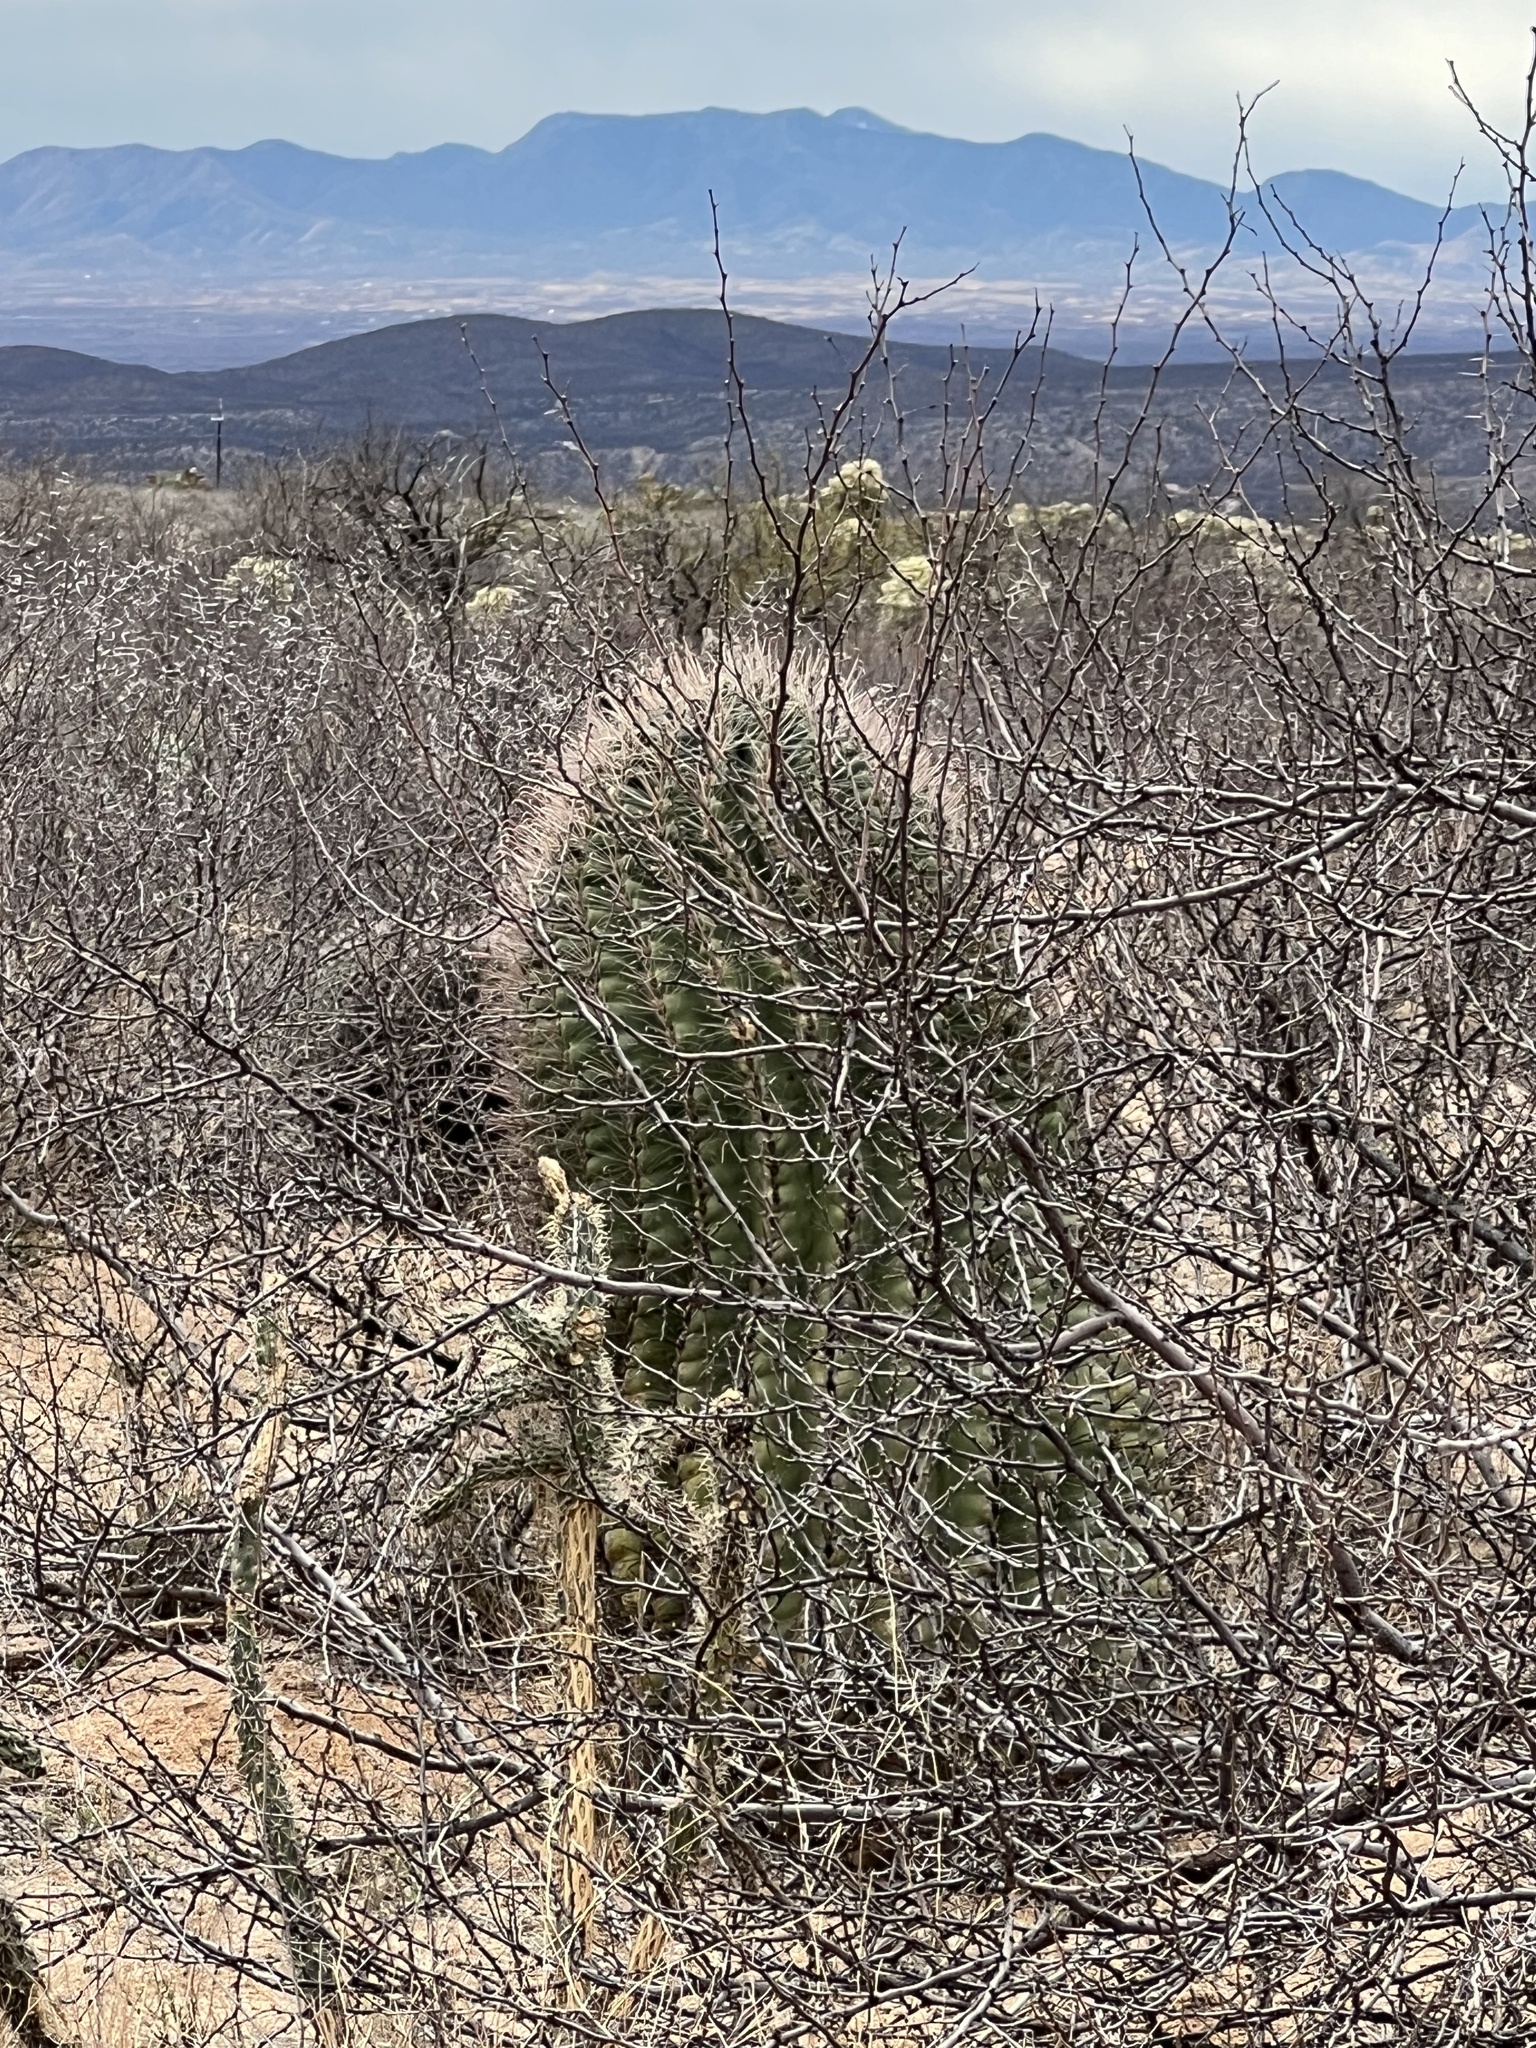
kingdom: Plantae
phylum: Tracheophyta
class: Magnoliopsida
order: Caryophyllales
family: Cactaceae
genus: Ferocactus
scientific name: Ferocactus wislizeni
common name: Candy barrel cactus
